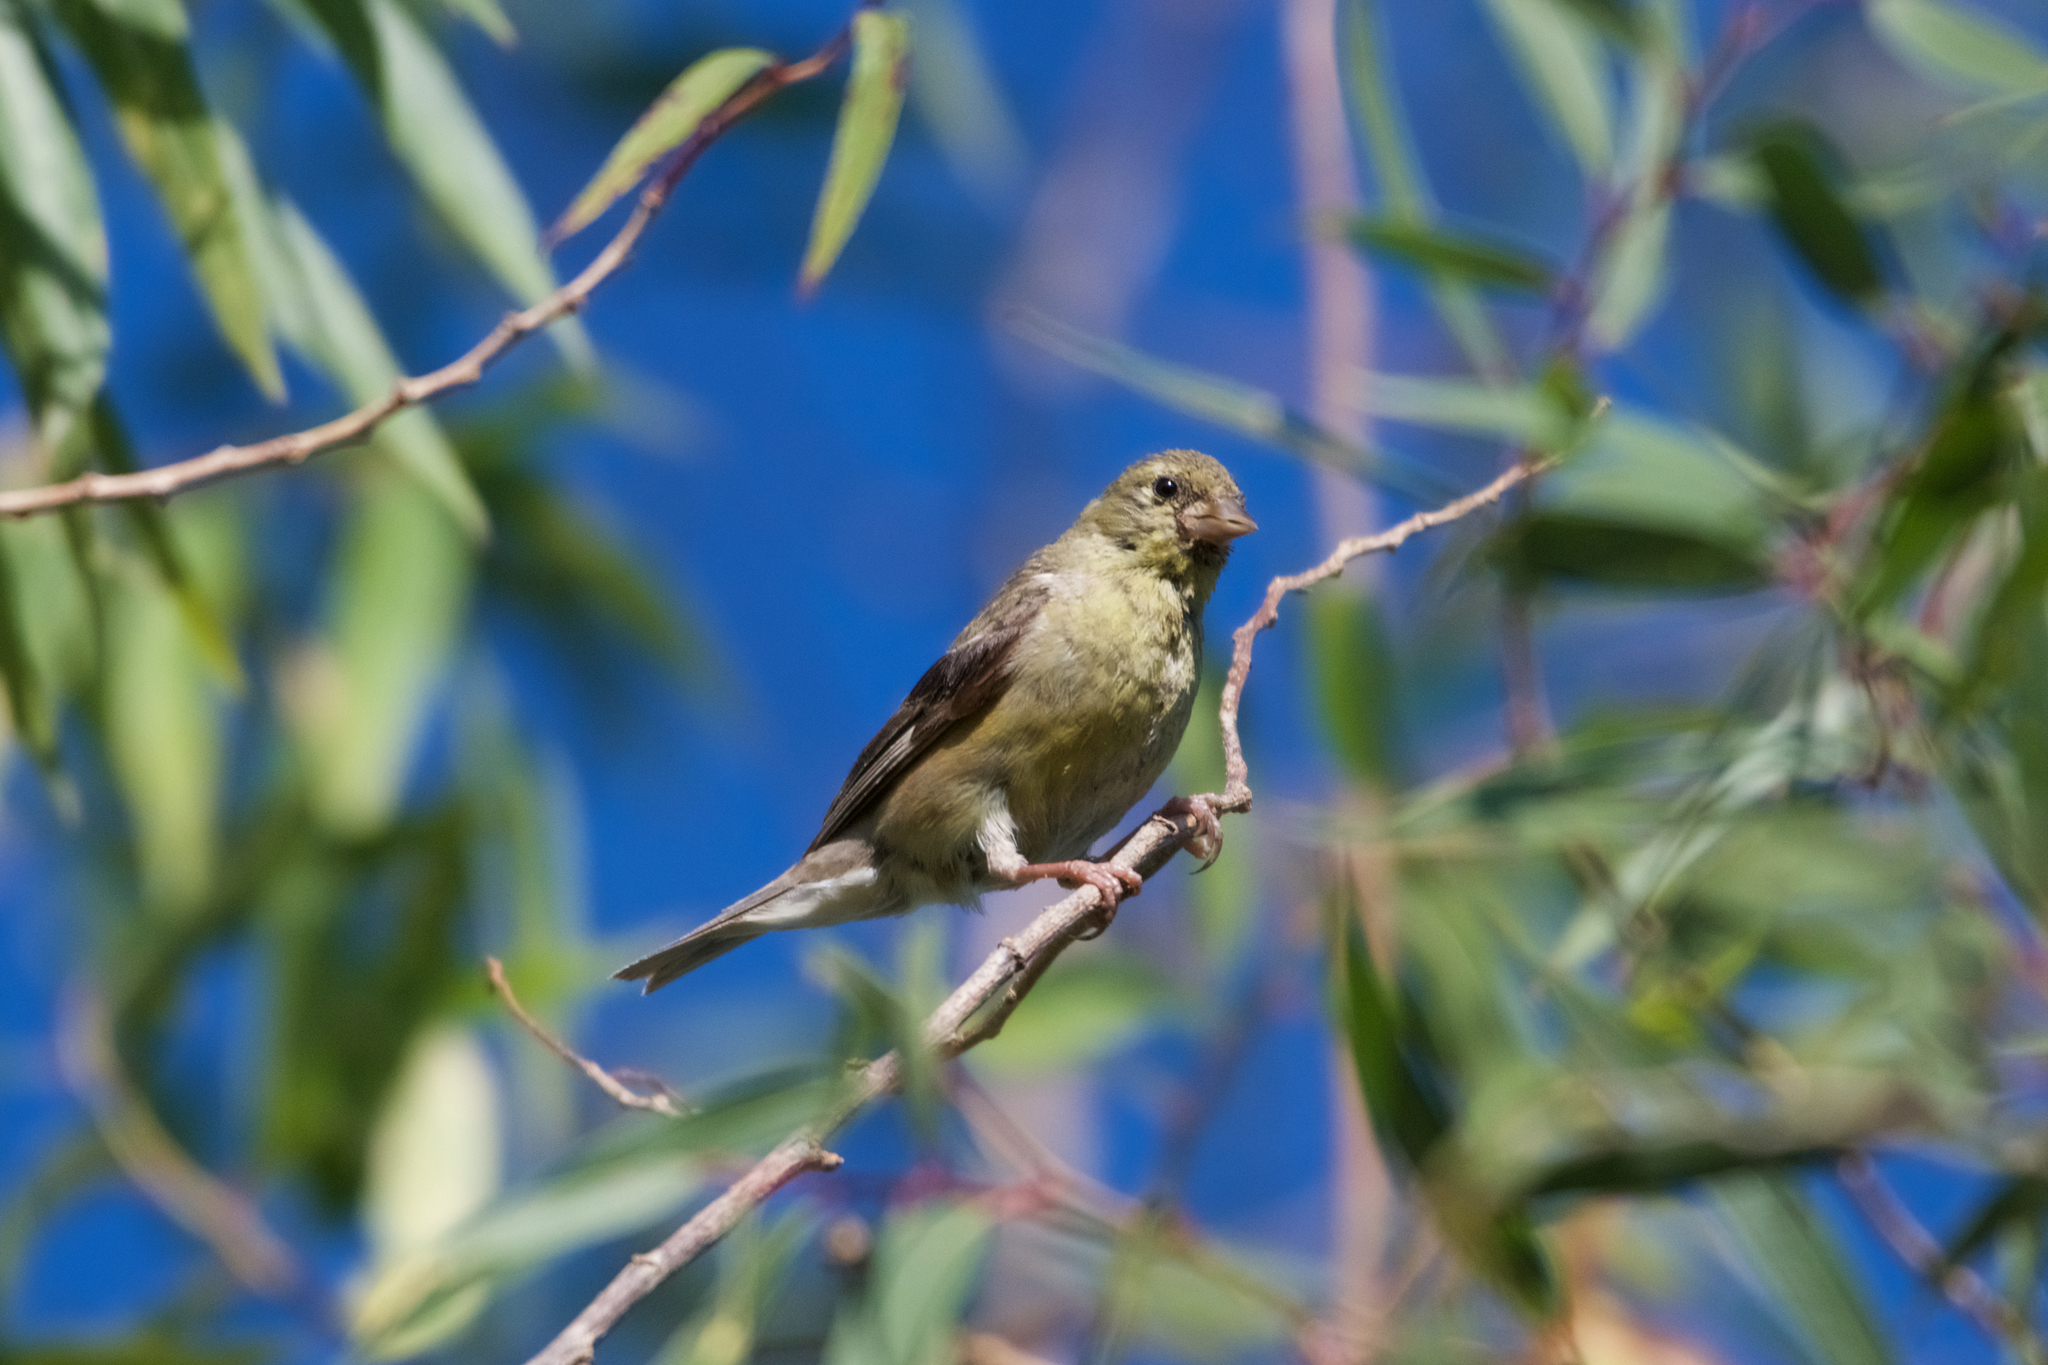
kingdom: Animalia
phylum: Chordata
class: Aves
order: Passeriformes
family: Fringillidae
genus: Spinus
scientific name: Spinus psaltria
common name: Lesser goldfinch
